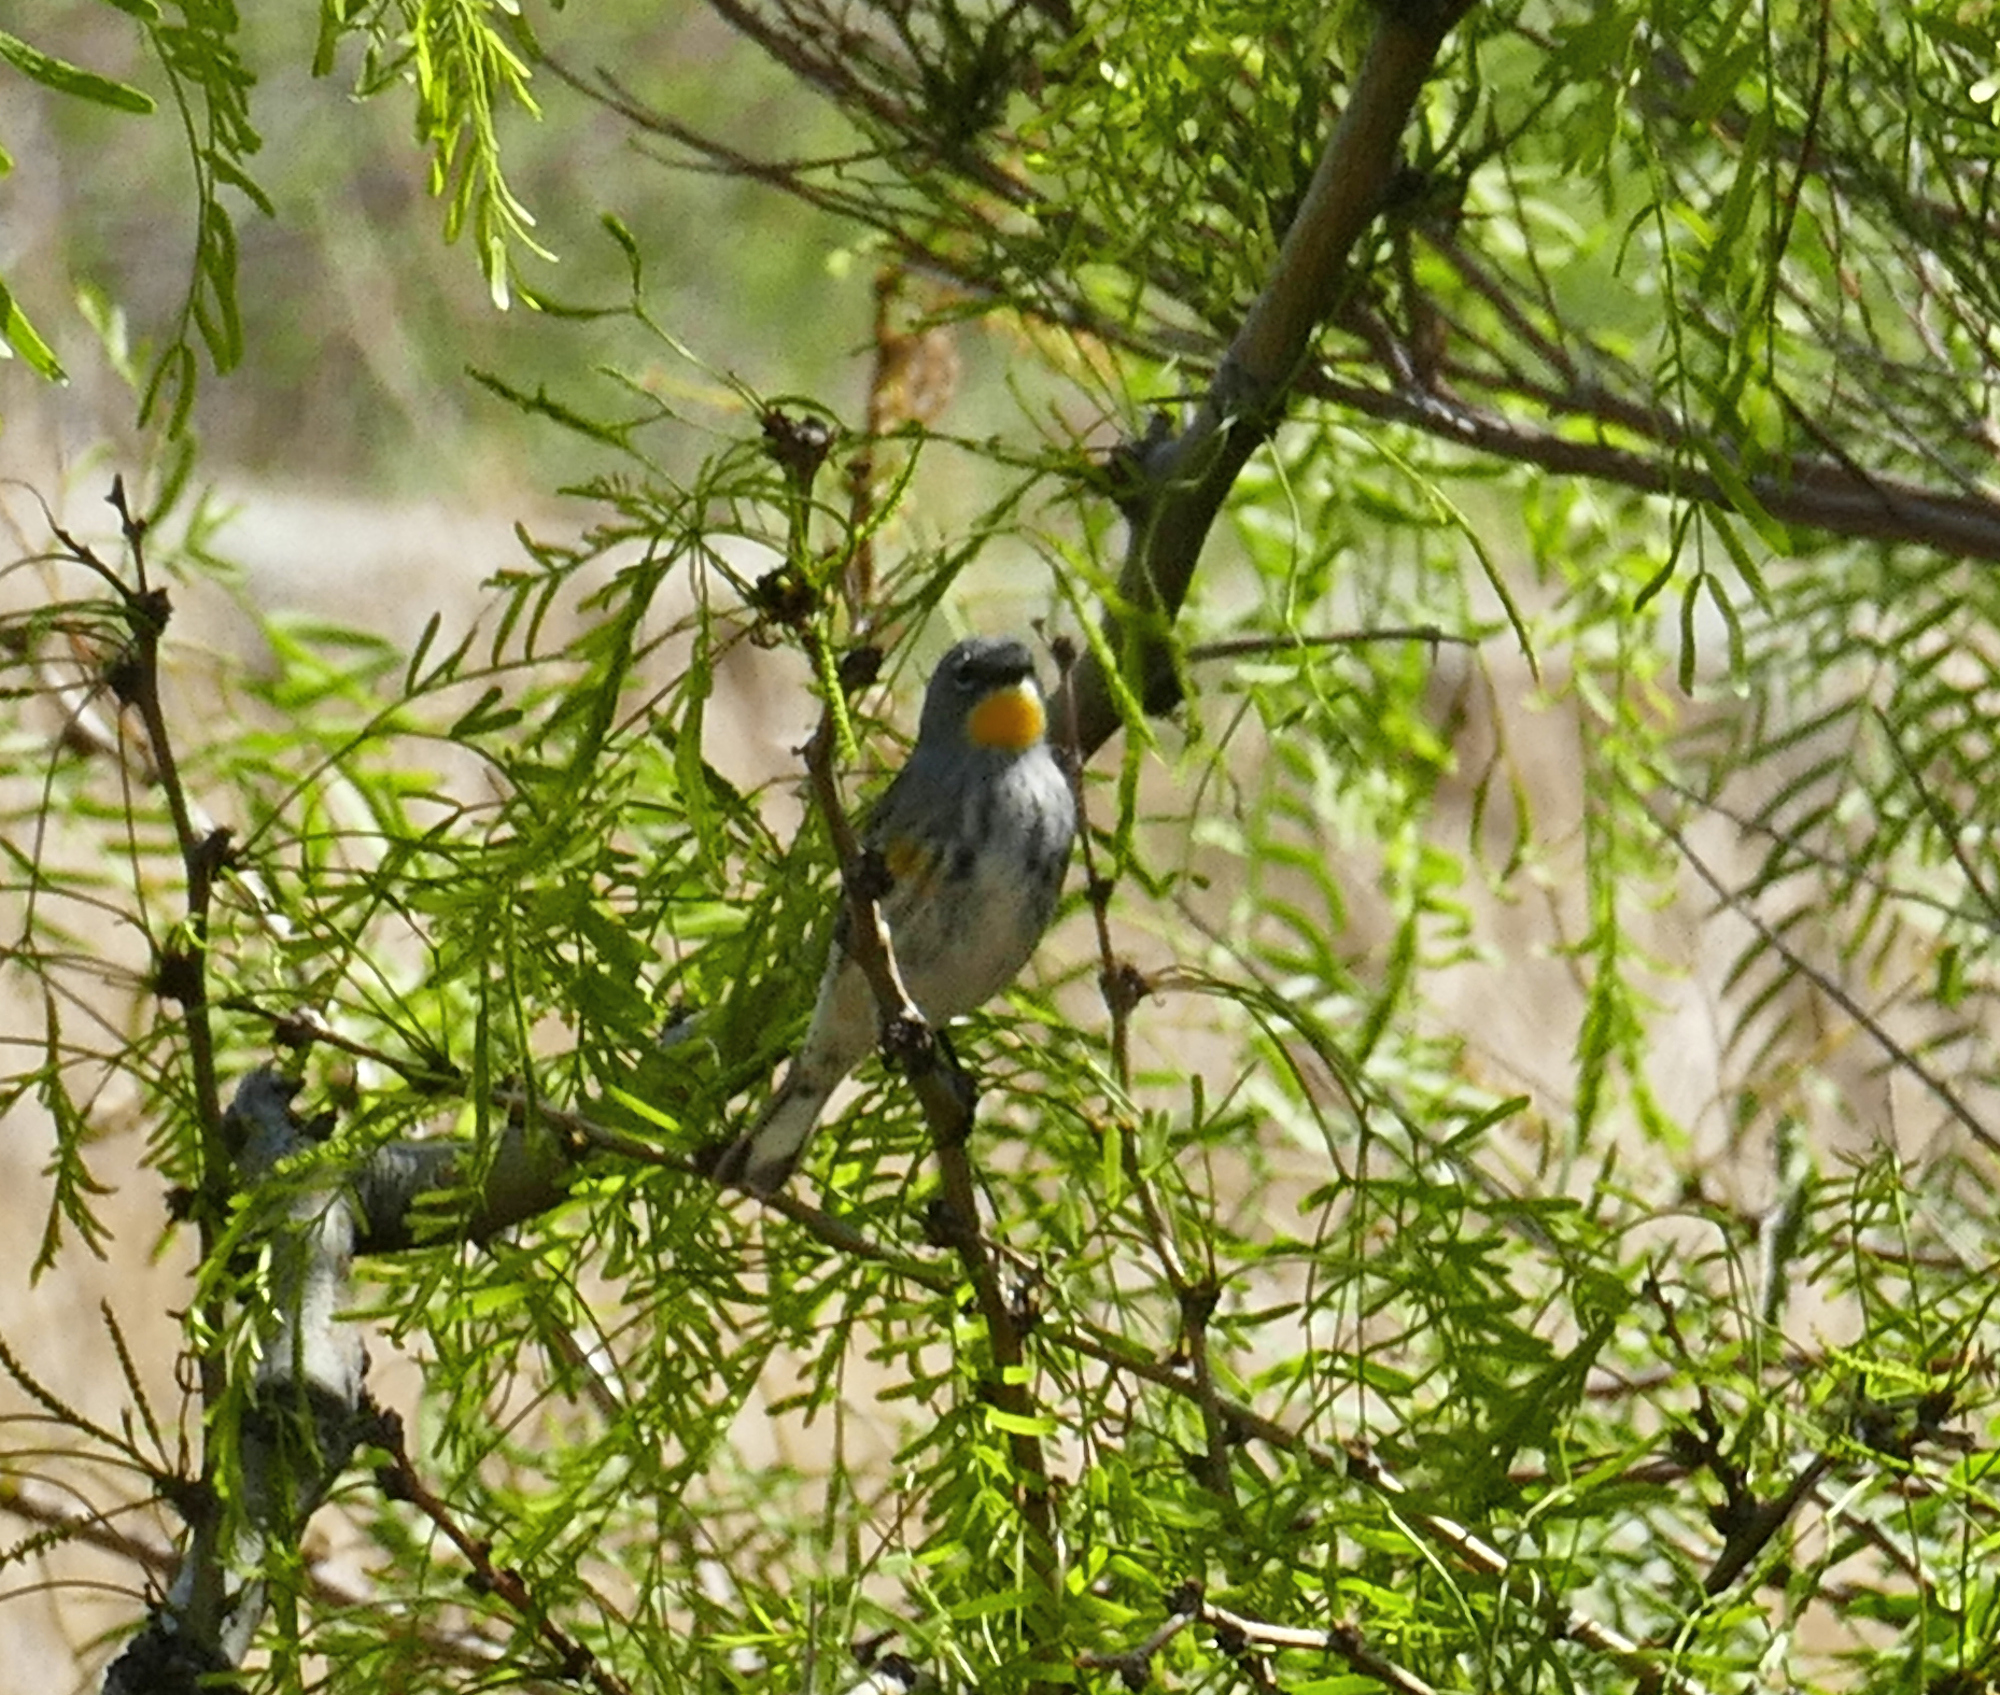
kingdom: Animalia
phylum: Chordata
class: Aves
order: Passeriformes
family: Parulidae
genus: Setophaga
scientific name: Setophaga coronata
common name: Myrtle warbler
